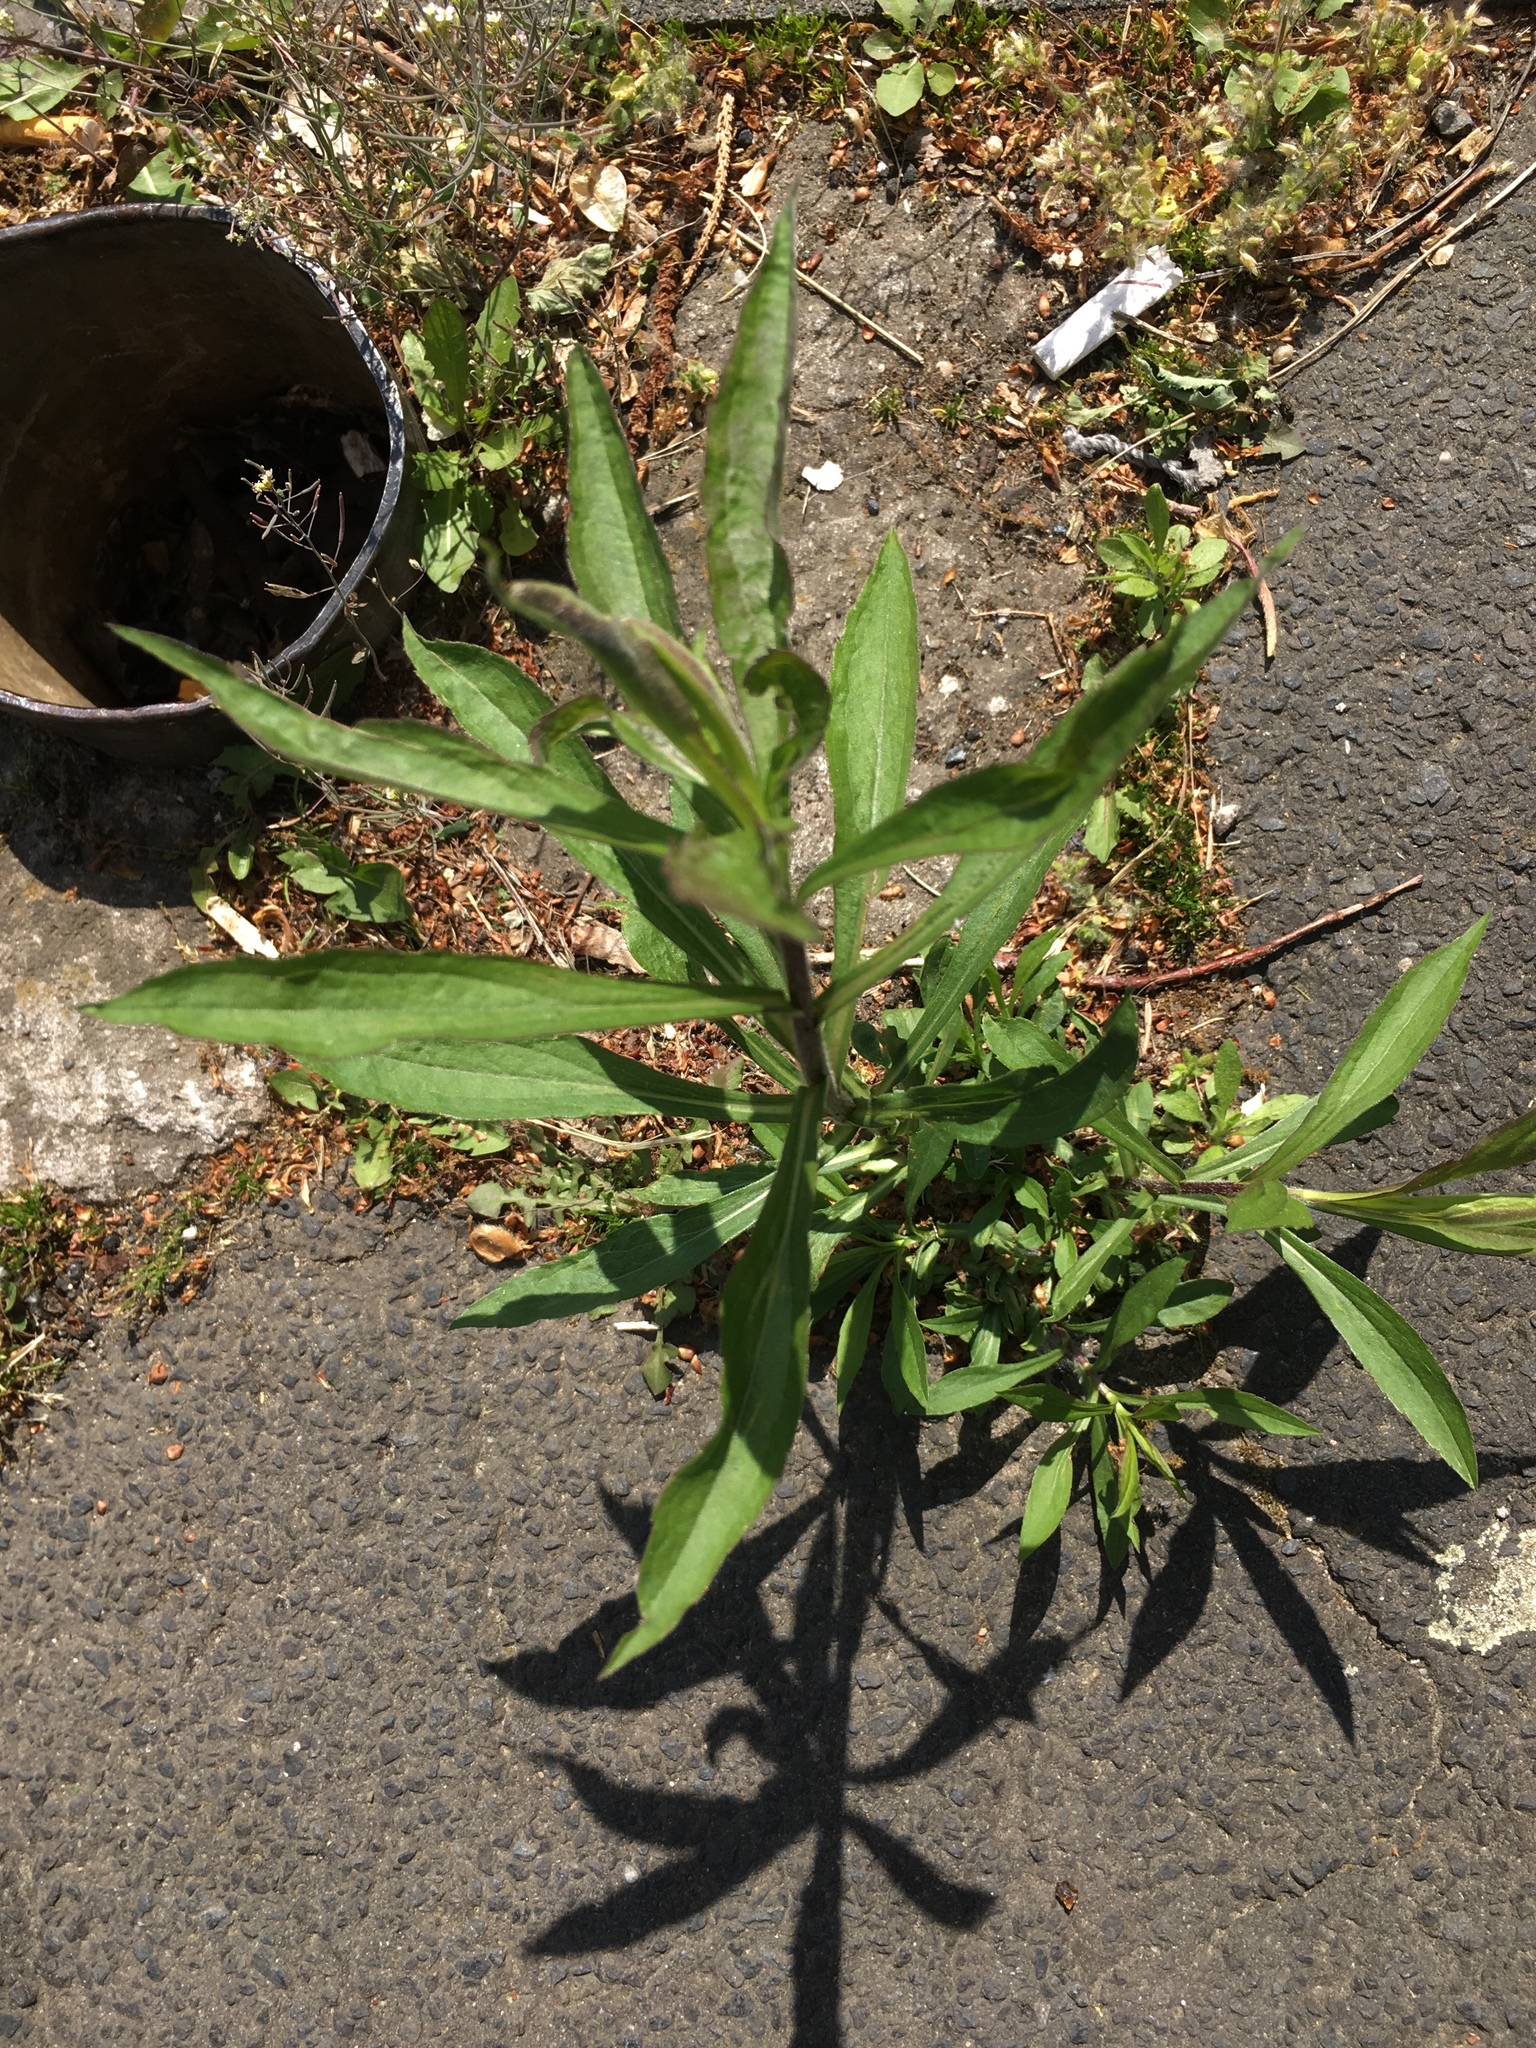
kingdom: Plantae
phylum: Tracheophyta
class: Magnoliopsida
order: Asterales
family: Asteraceae
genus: Solidago
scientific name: Solidago canadensis
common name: Canada goldenrod
